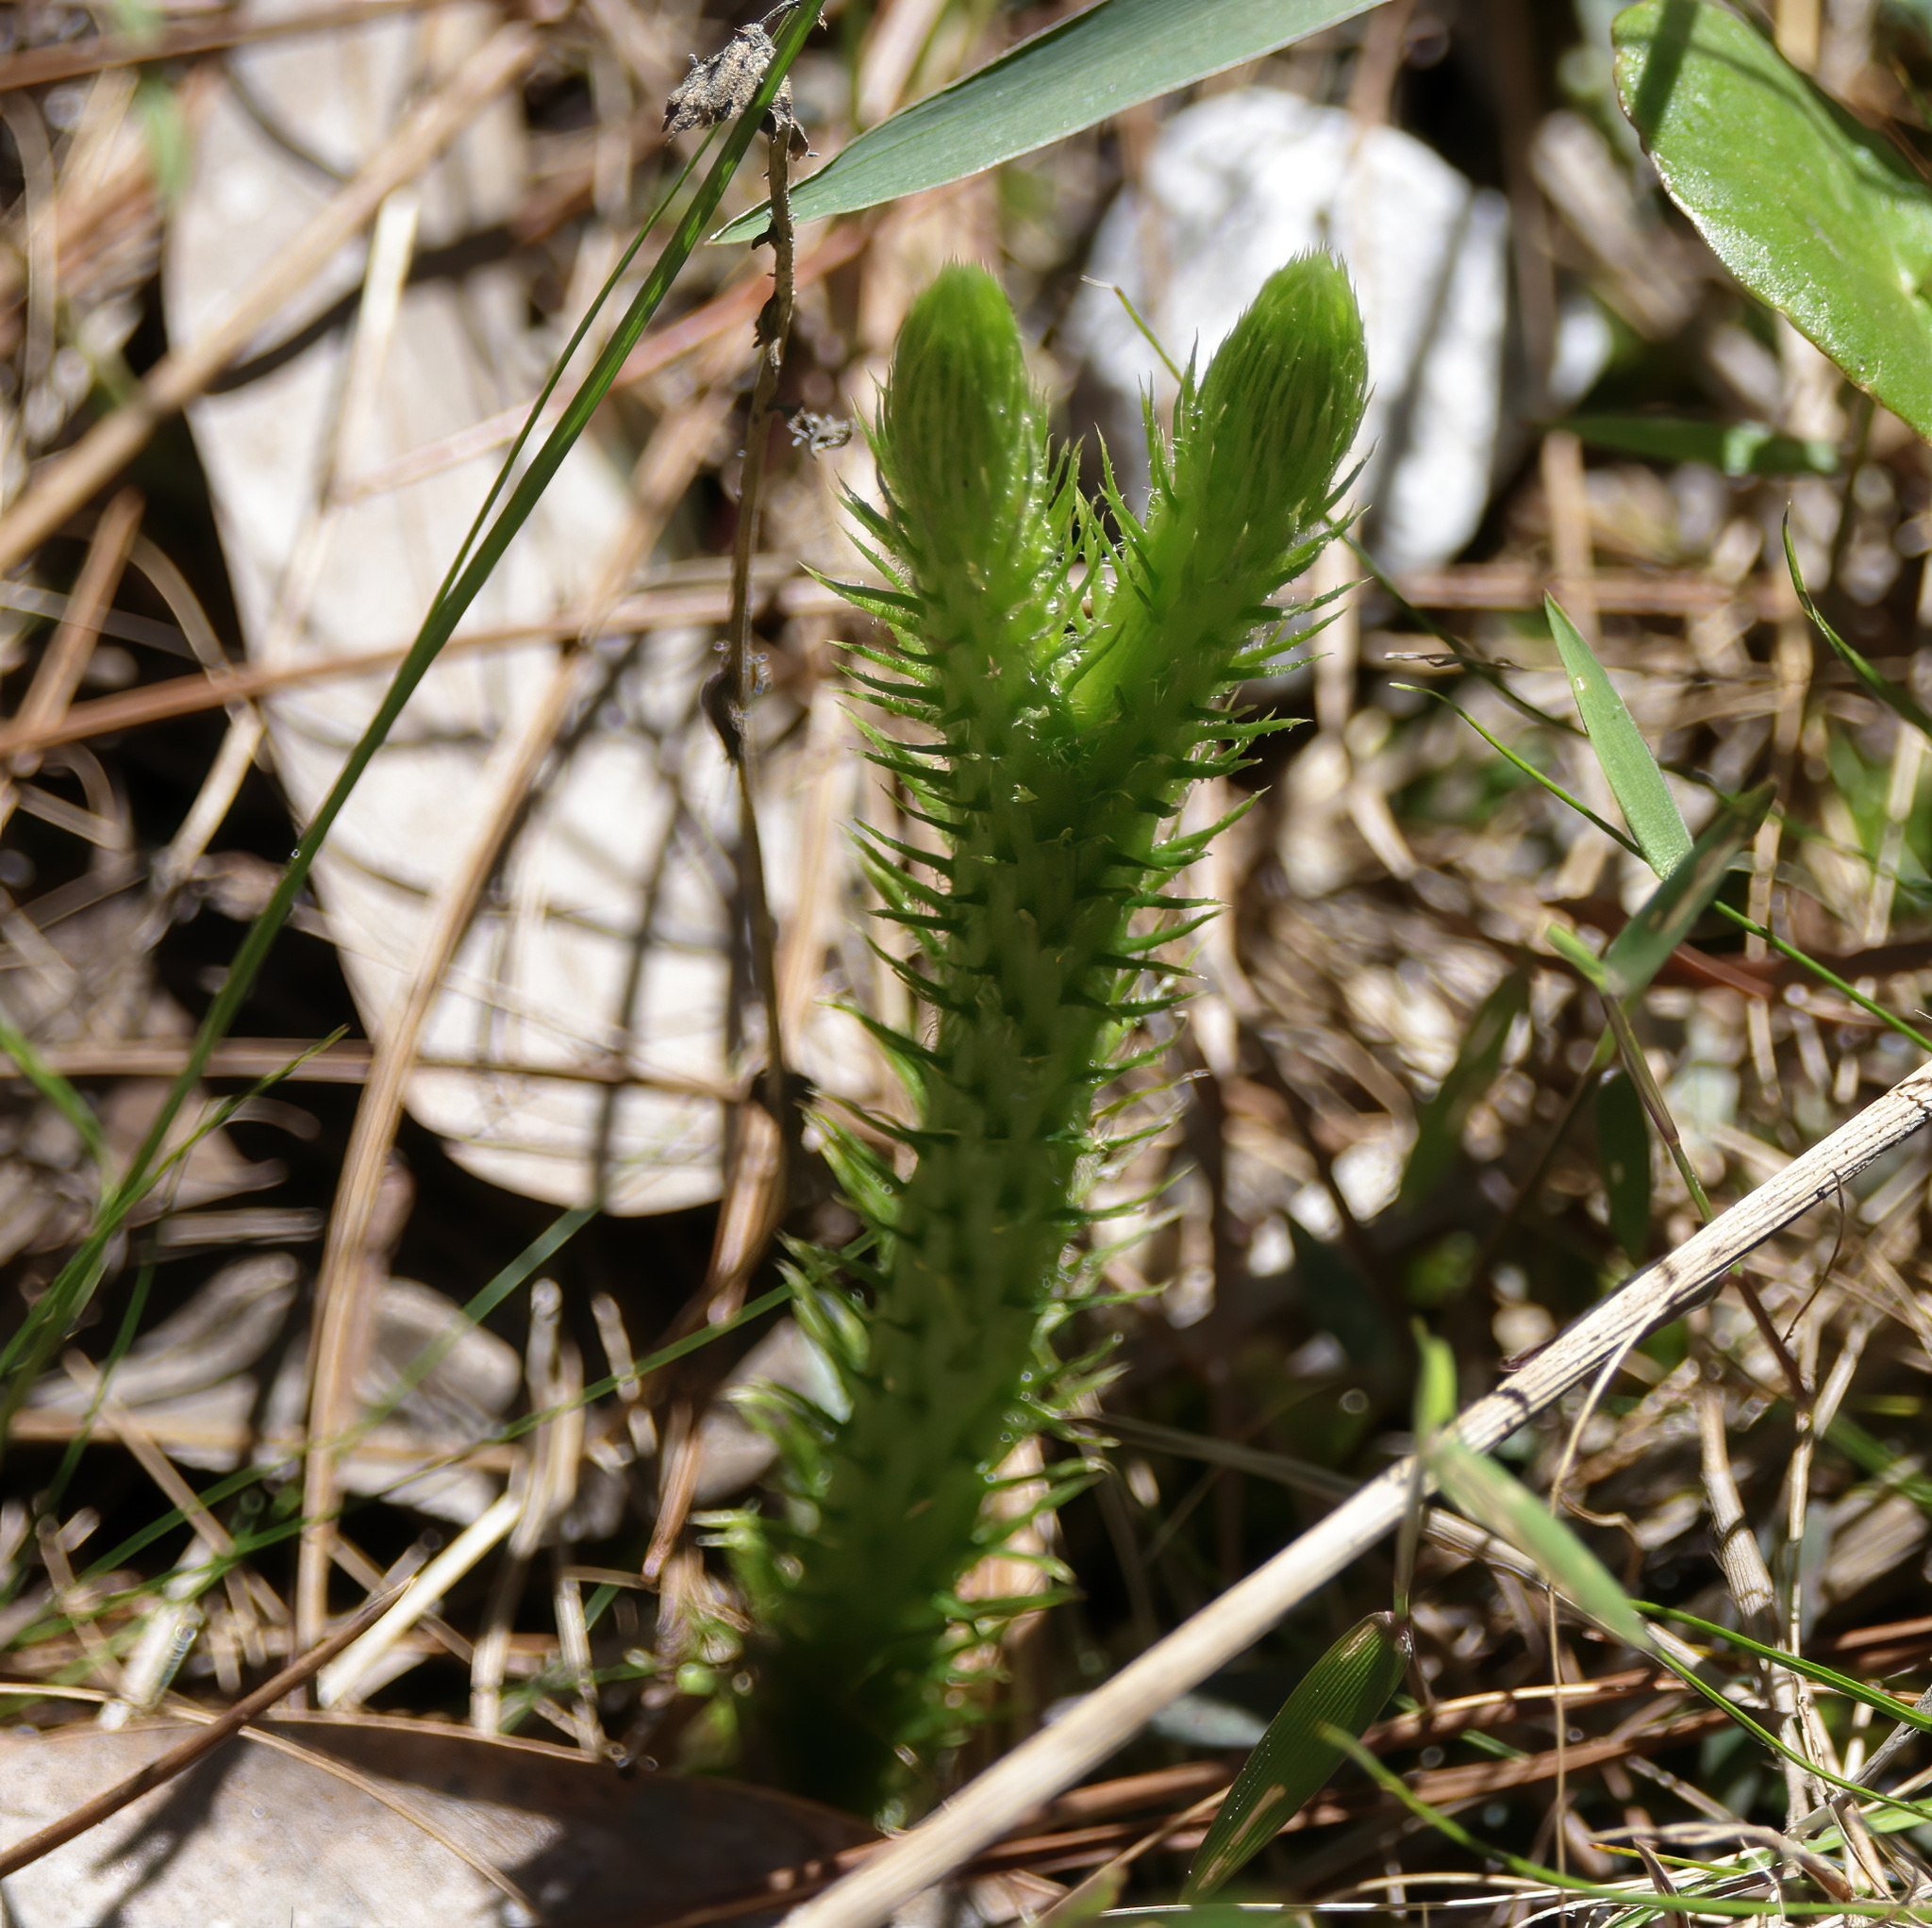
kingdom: Plantae
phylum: Tracheophyta
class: Lycopodiopsida
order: Lycopodiales
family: Lycopodiaceae
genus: Lycopodiella
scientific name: Lycopodiella alopecuroides
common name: Foxtail clubmoss
